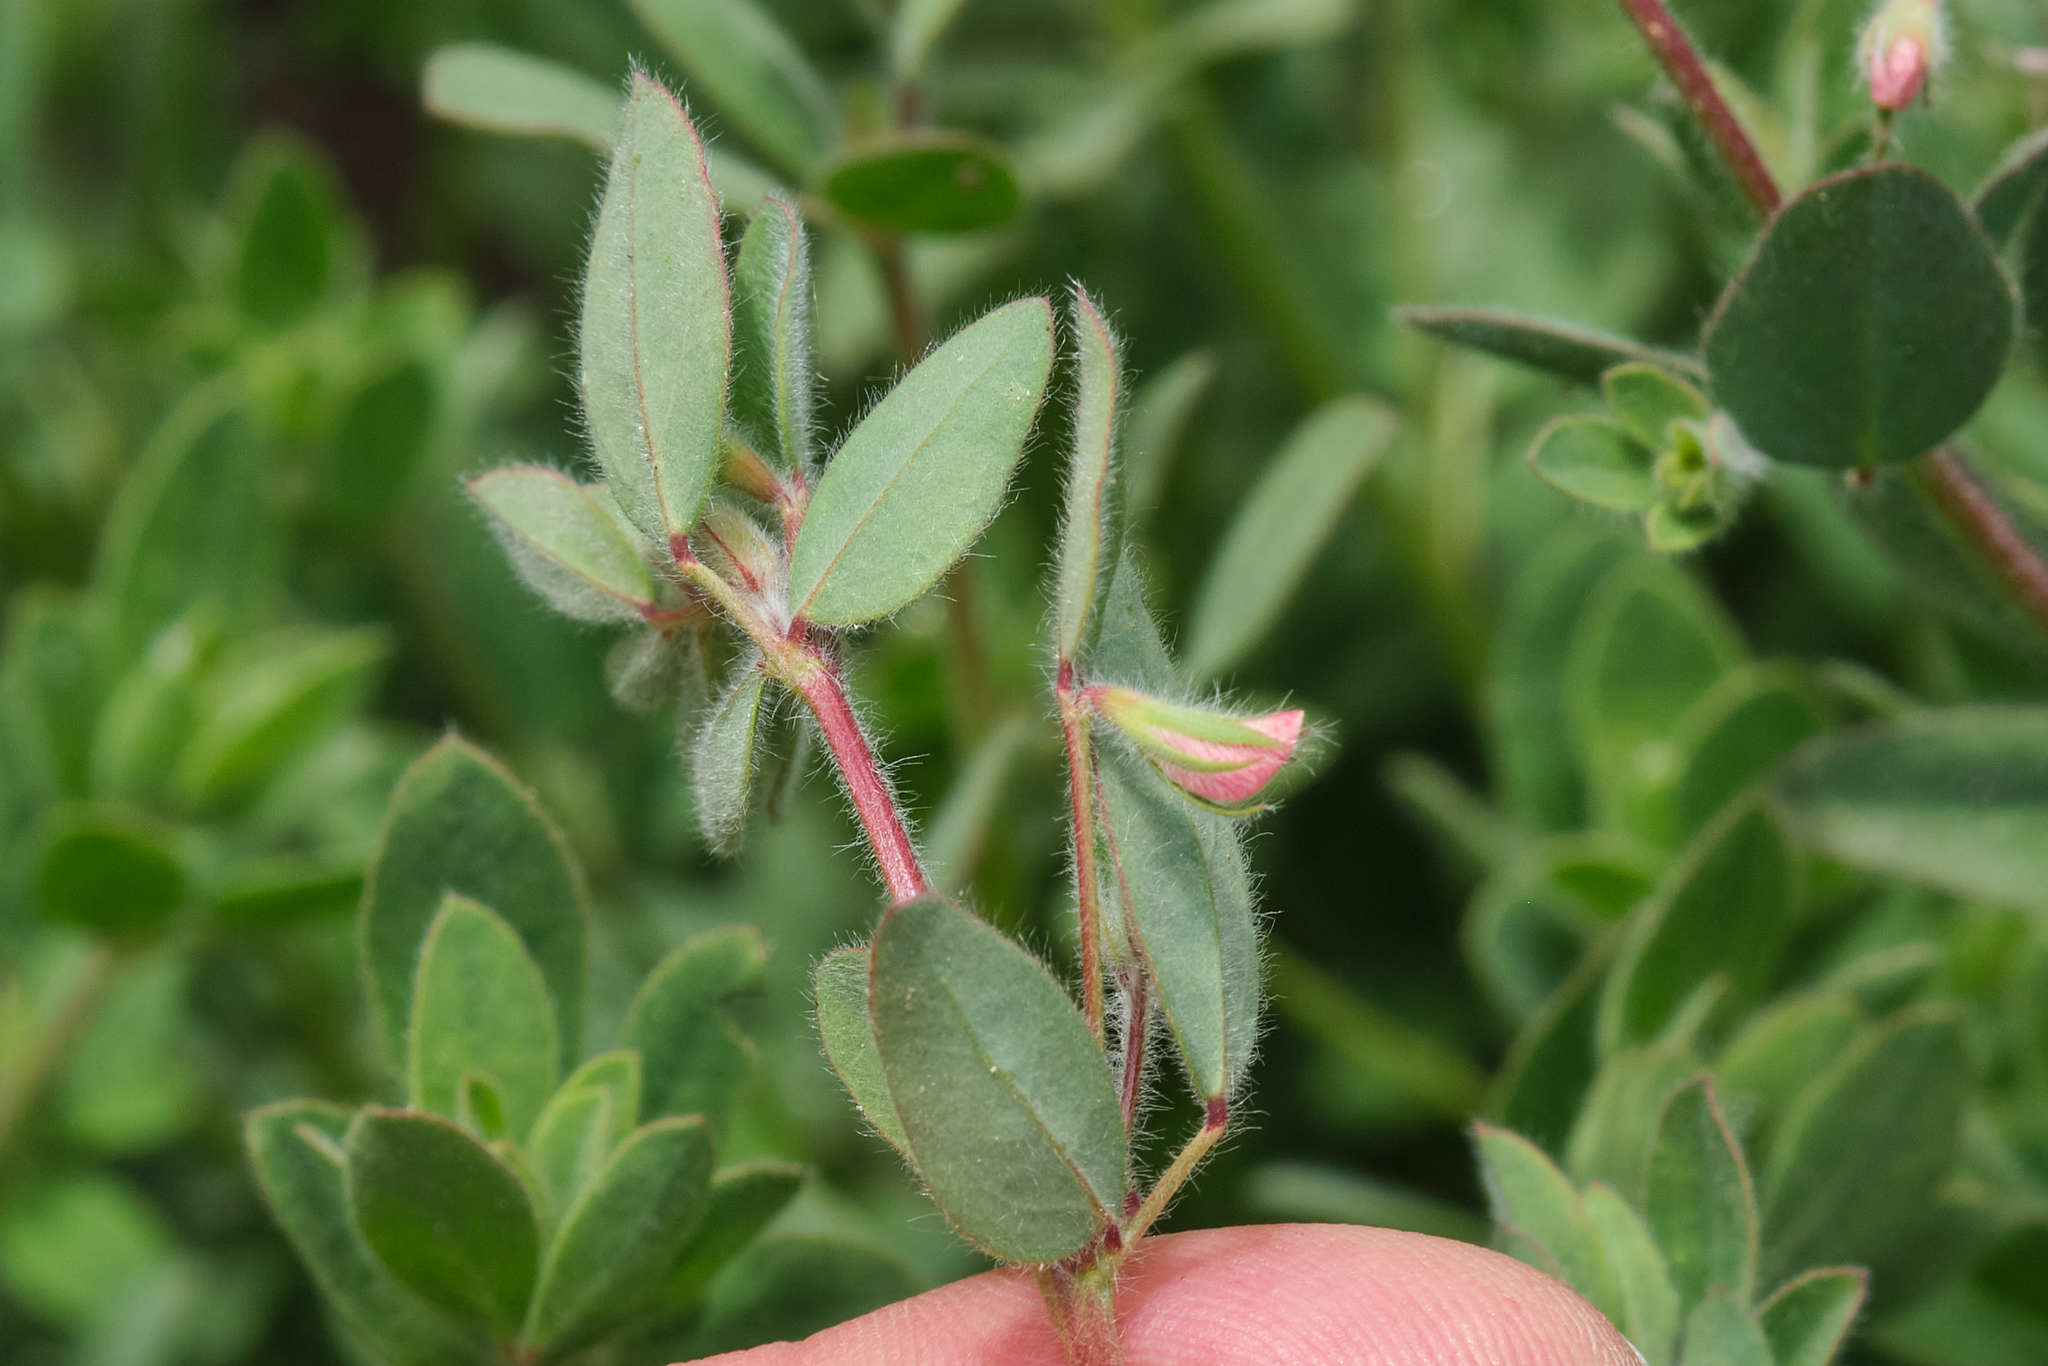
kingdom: Plantae
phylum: Tracheophyta
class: Magnoliopsida
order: Fabales
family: Fabaceae
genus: Acmispon
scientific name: Acmispon americanus
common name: American bird's-foot trefoil
